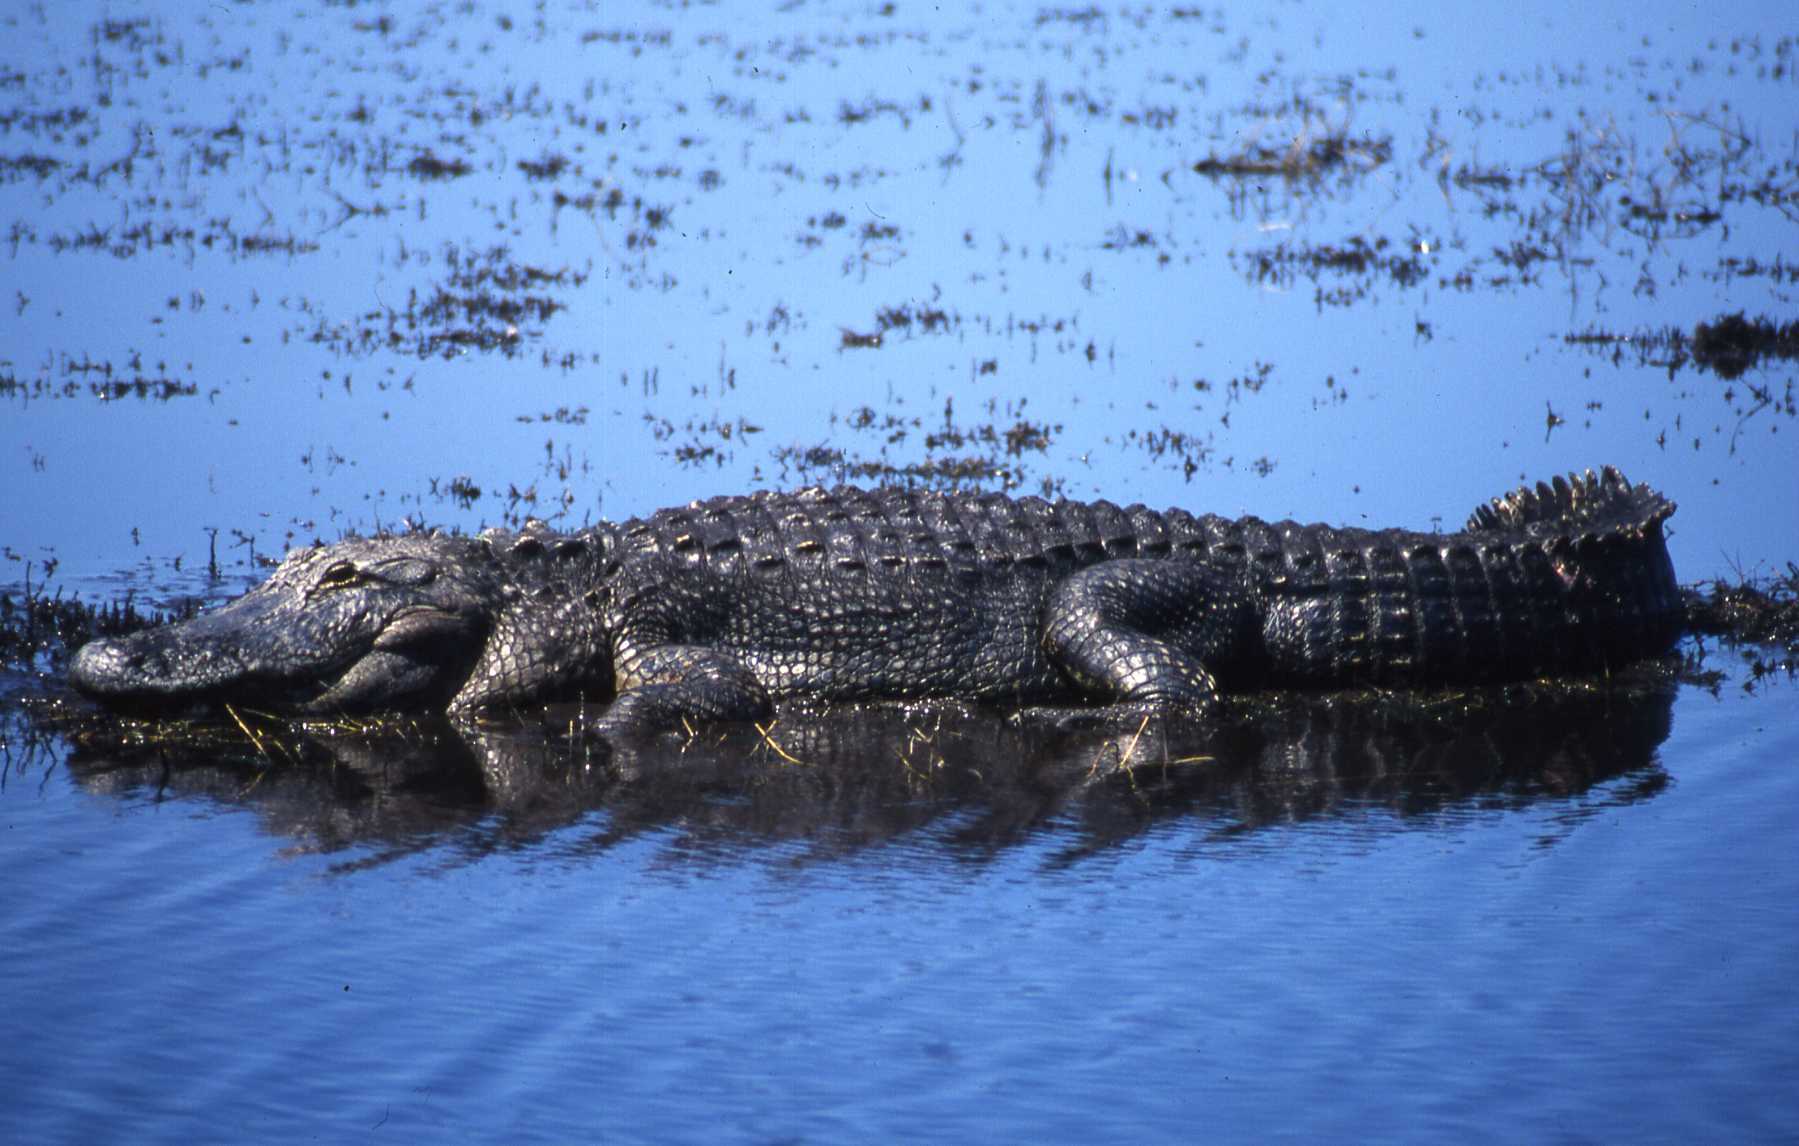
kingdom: Animalia
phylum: Chordata
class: Crocodylia
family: Alligatoridae
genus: Alligator
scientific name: Alligator mississippiensis
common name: American alligator
